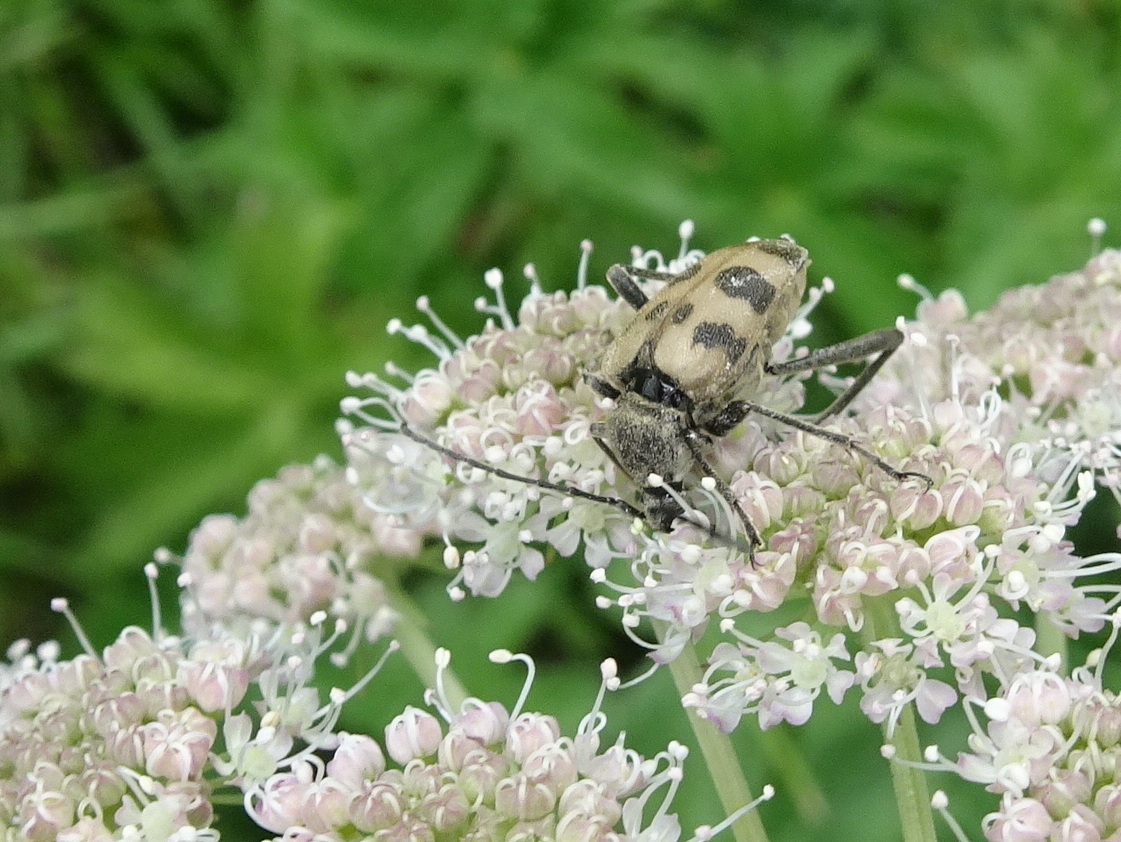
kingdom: Animalia
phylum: Arthropoda
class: Insecta
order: Coleoptera
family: Cerambycidae
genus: Pachytodes
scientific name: Pachytodes cerambyciformis
